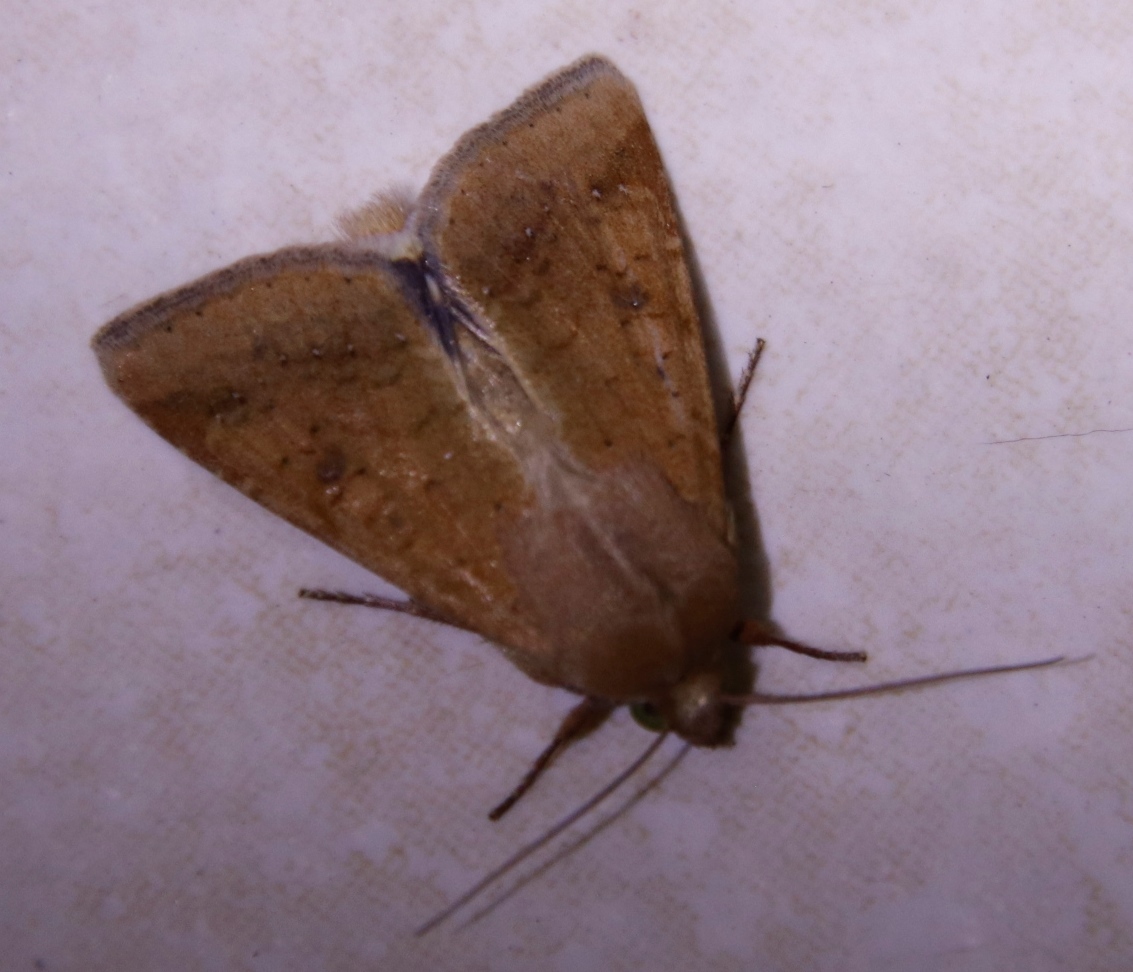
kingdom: Animalia
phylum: Arthropoda
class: Insecta
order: Lepidoptera
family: Noctuidae
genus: Helicoverpa
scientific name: Helicoverpa armigera
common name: Cotton bollworm
